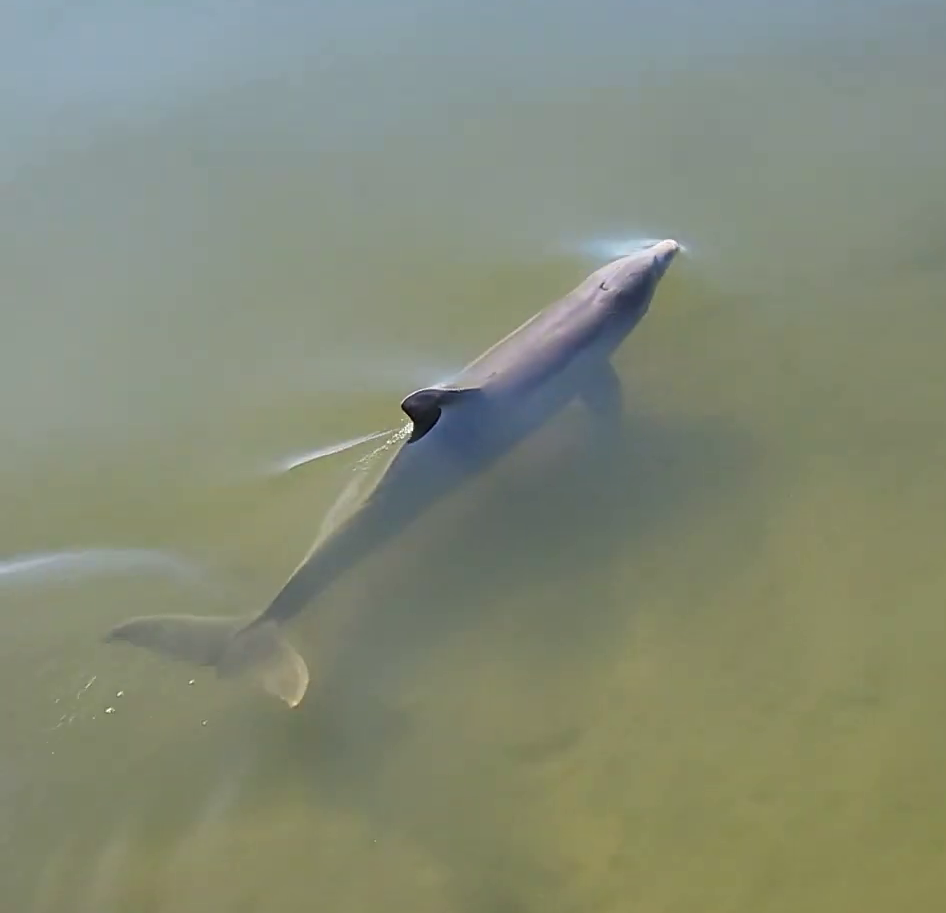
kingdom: Animalia
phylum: Chordata
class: Mammalia
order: Cetacea
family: Delphinidae
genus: Tursiops
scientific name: Tursiops truncatus
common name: Bottlenose dolphin
